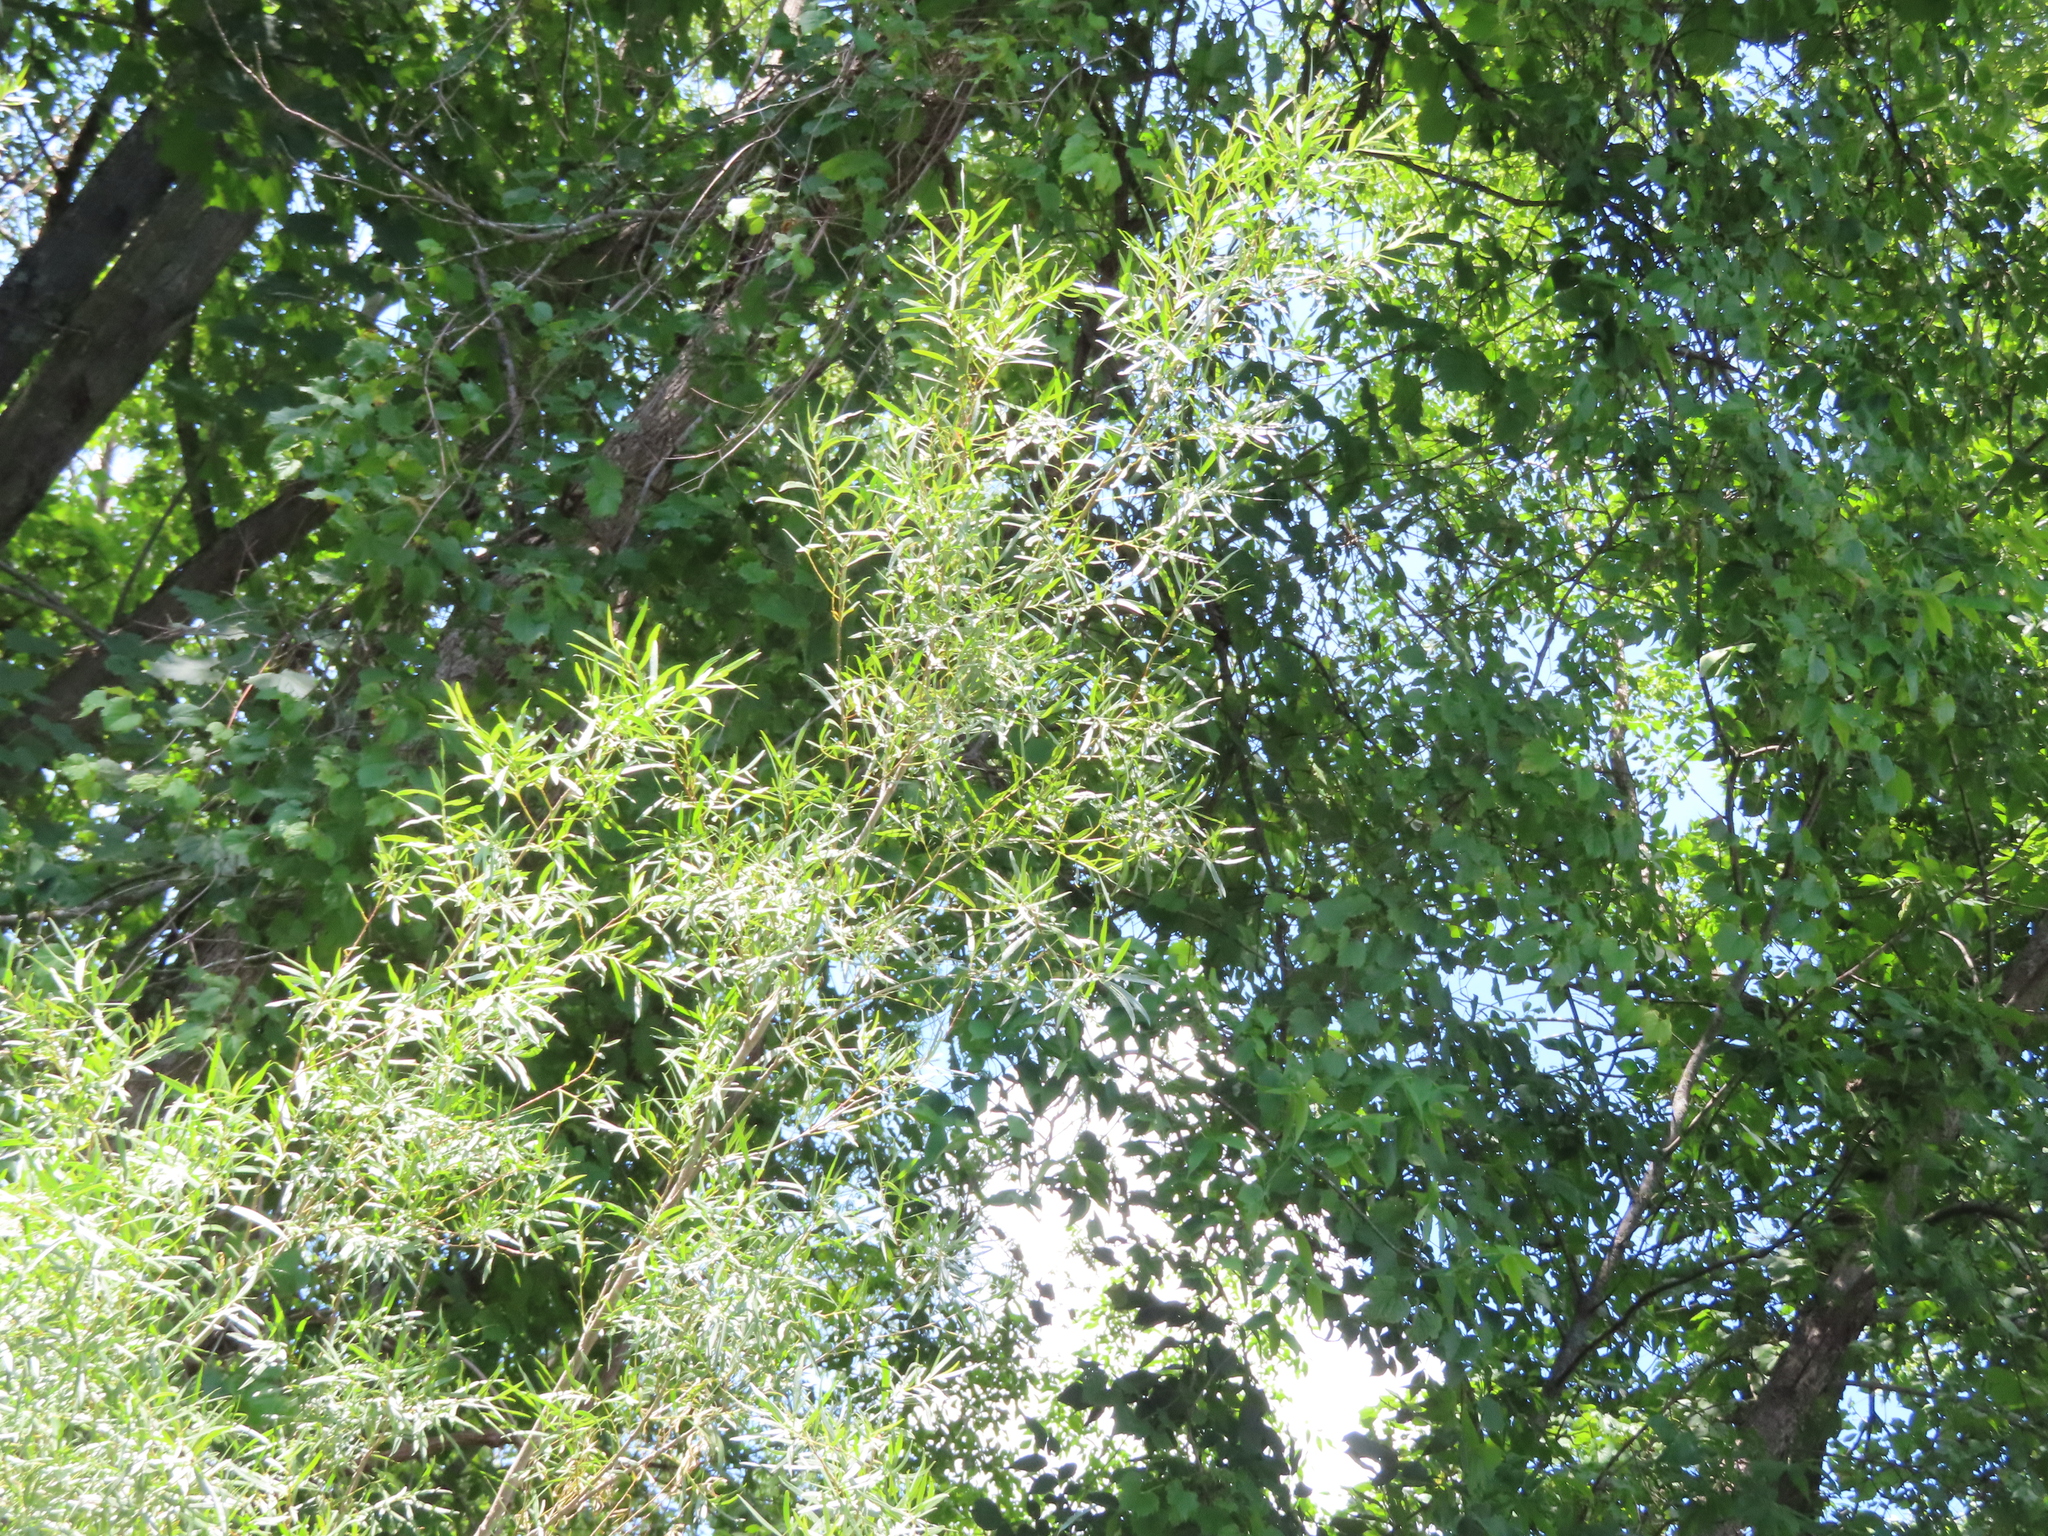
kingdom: Plantae
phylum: Tracheophyta
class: Magnoliopsida
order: Malpighiales
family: Salicaceae
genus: Salix
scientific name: Salix interior
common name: Sandbar willow
